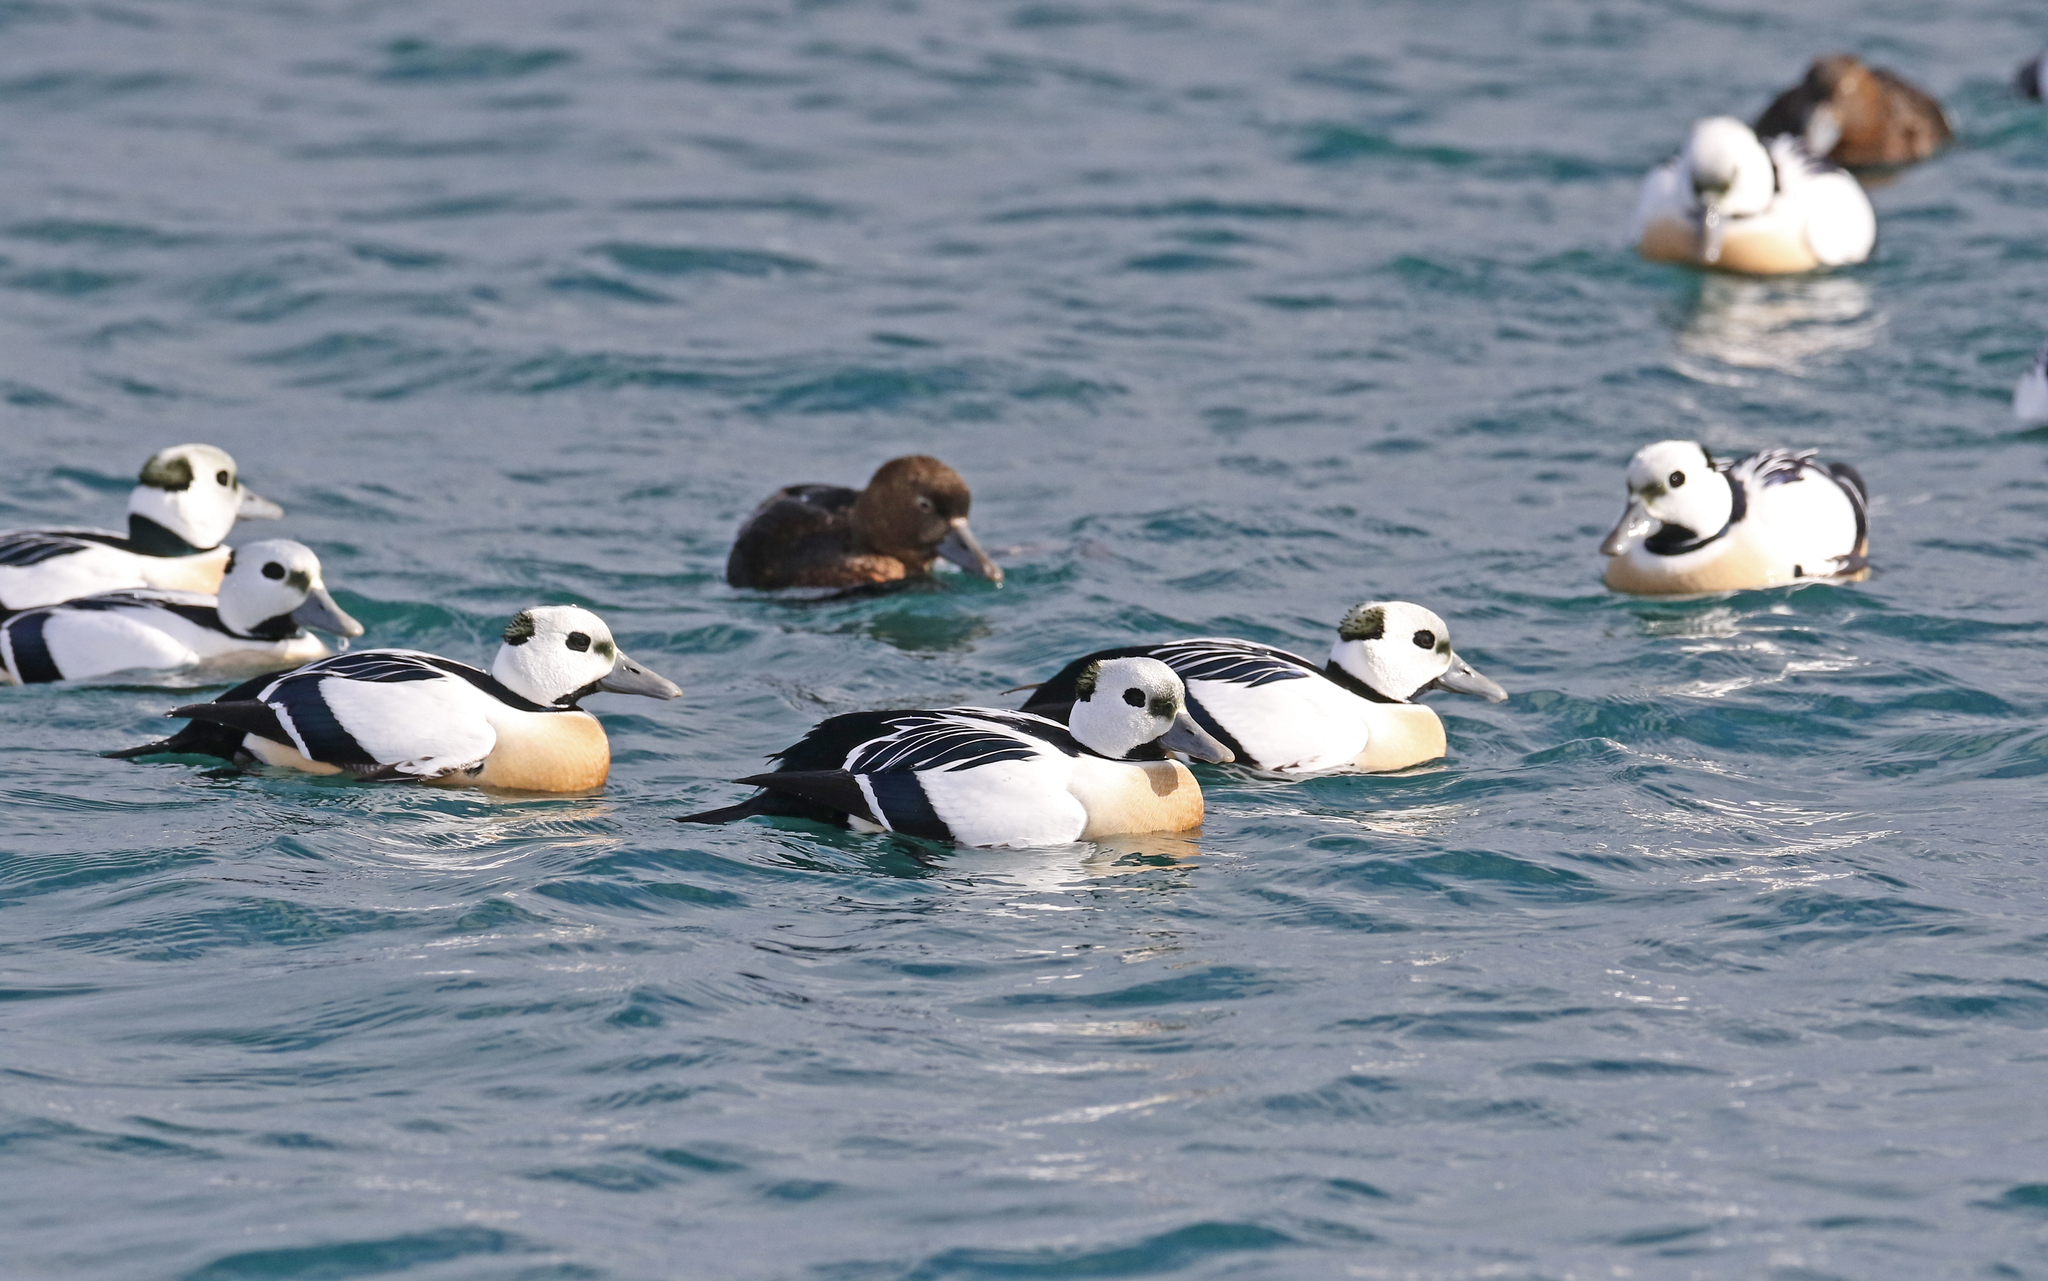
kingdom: Animalia
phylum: Chordata
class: Aves
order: Anseriformes
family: Anatidae
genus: Polysticta
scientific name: Polysticta stelleri
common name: Steller's eider
